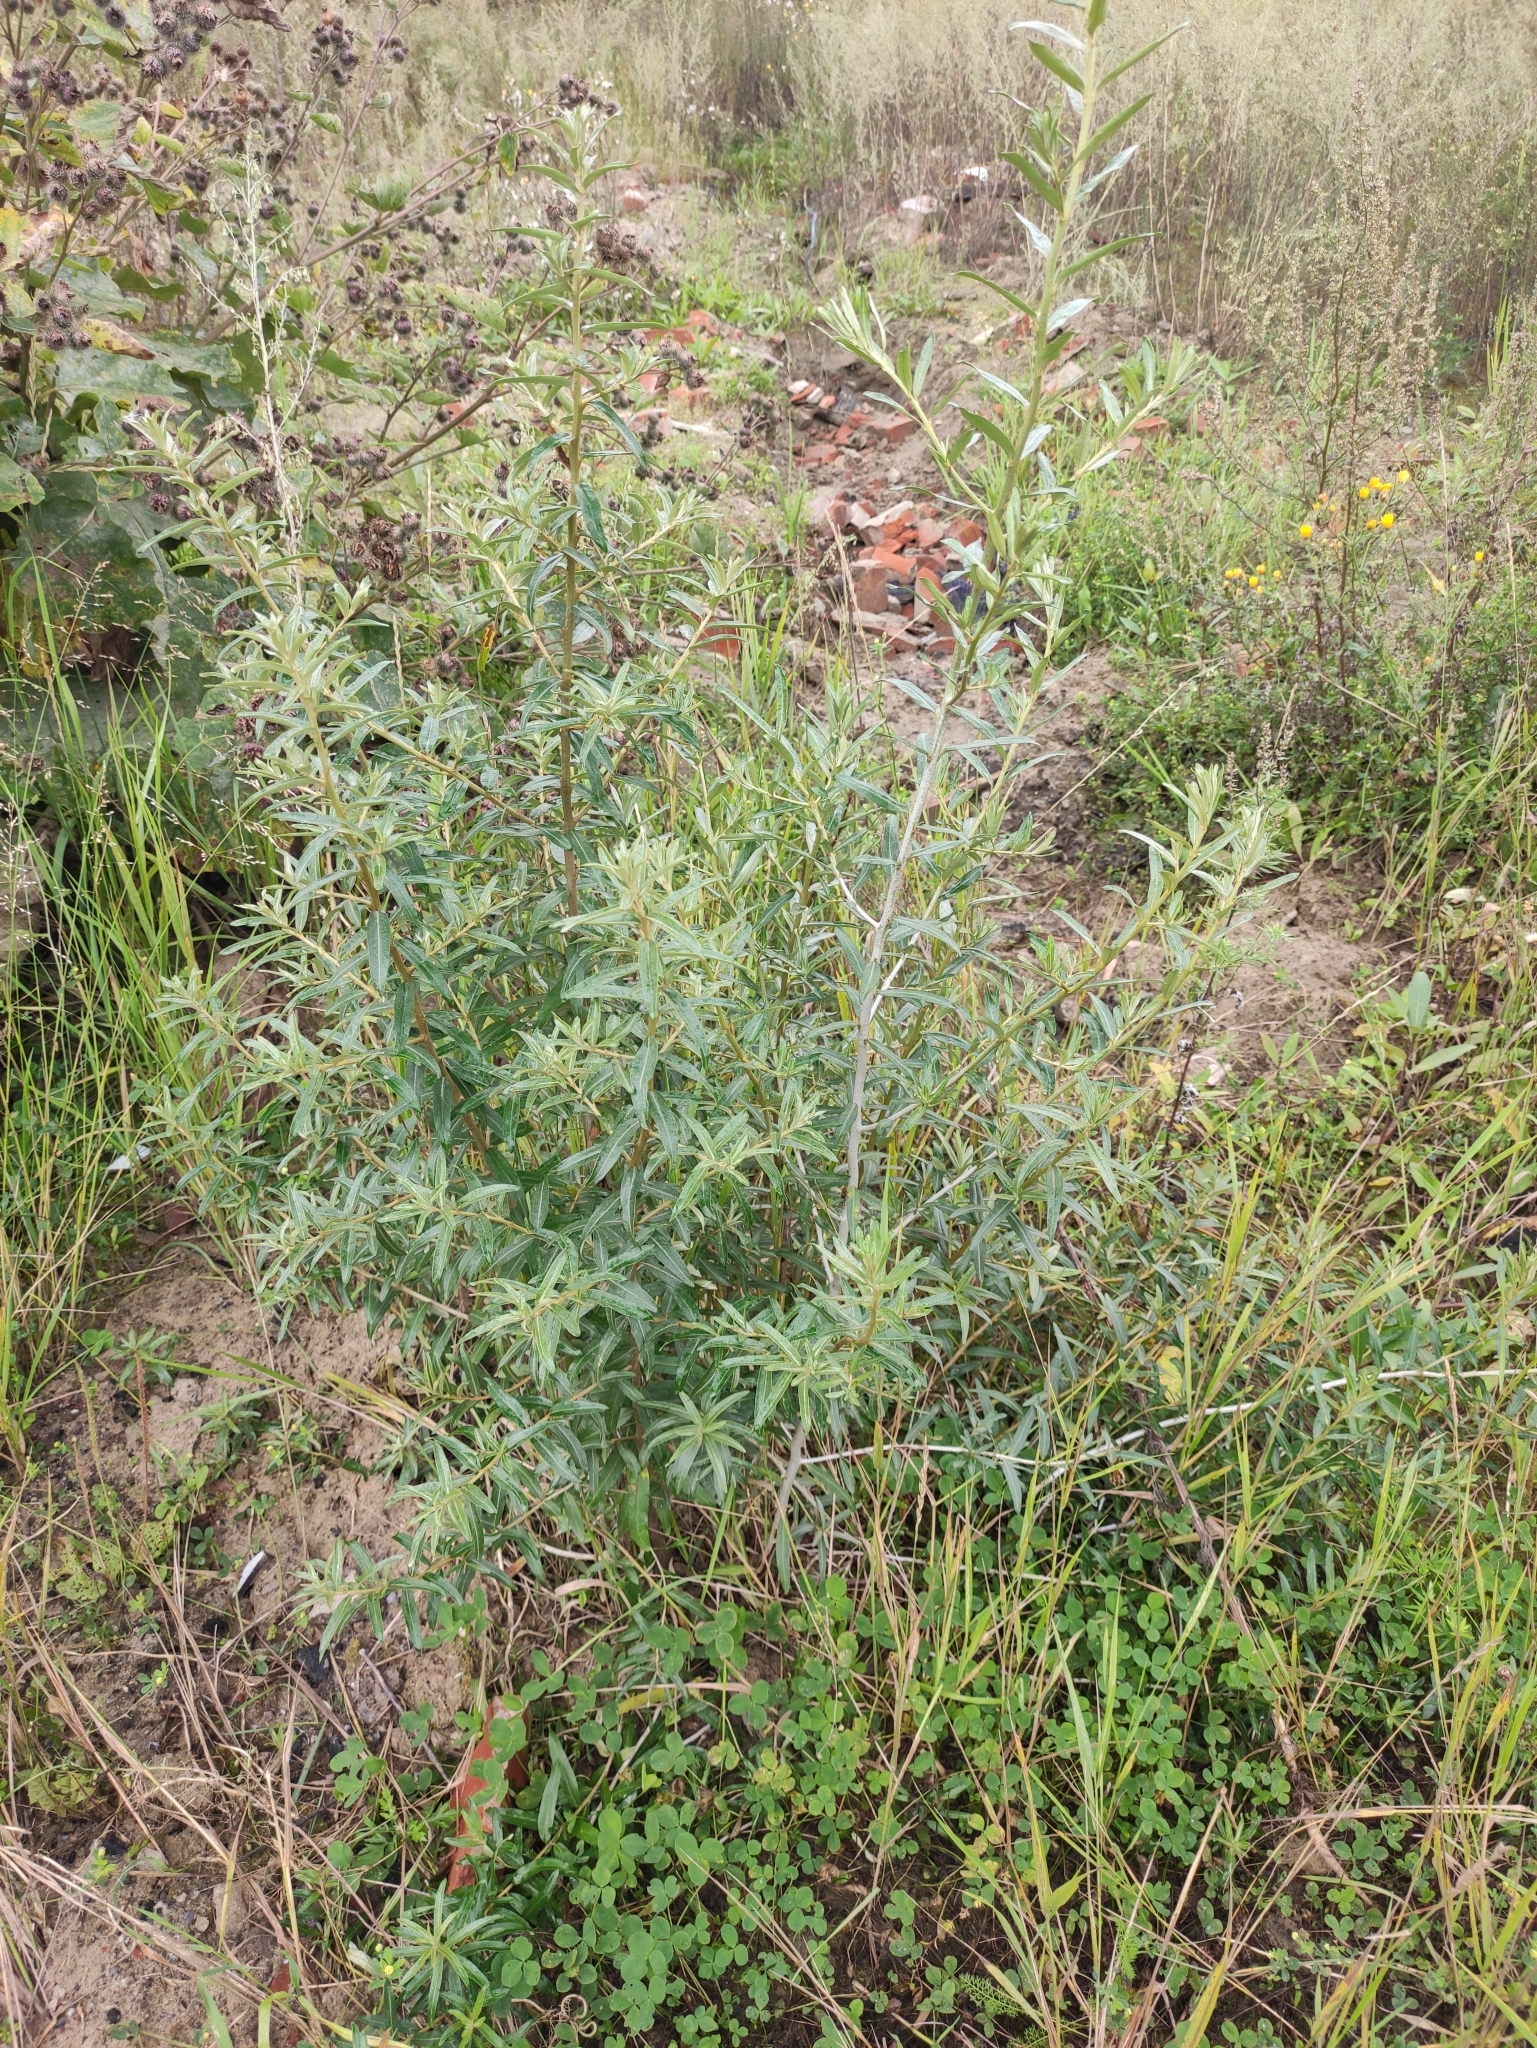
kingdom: Plantae
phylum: Tracheophyta
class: Magnoliopsida
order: Rosales
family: Elaeagnaceae
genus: Hippophae
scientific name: Hippophae rhamnoides
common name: Sea-buckthorn
